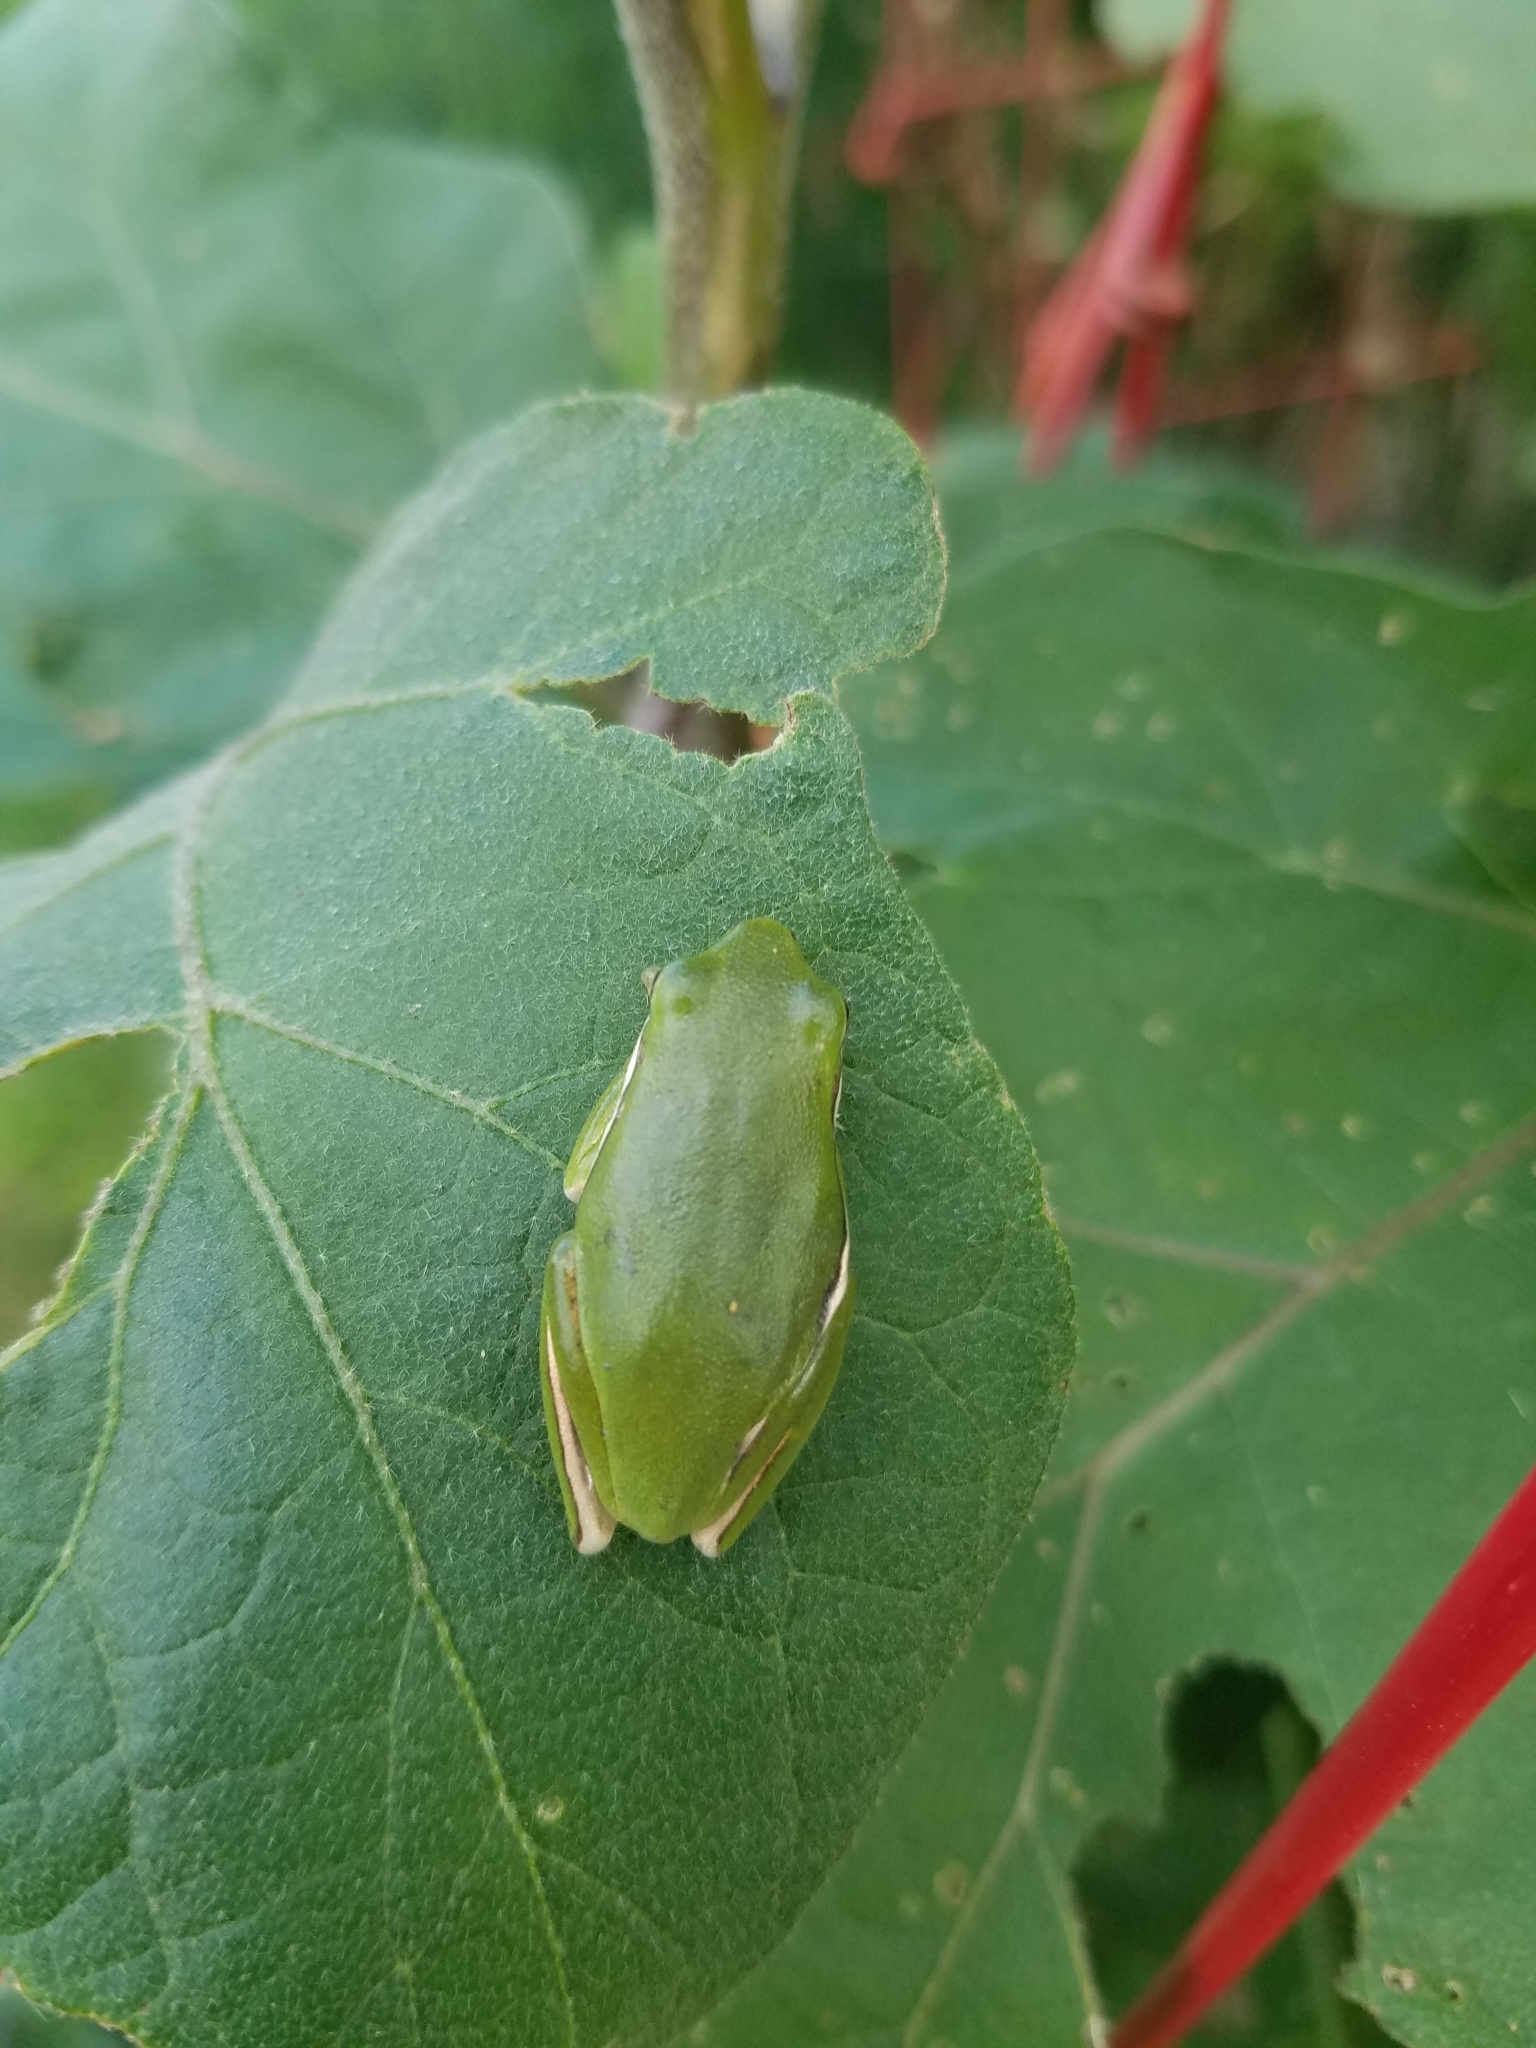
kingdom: Animalia
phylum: Chordata
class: Amphibia
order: Anura
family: Hylidae
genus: Dryophytes
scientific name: Dryophytes cinereus
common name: Green treefrog
